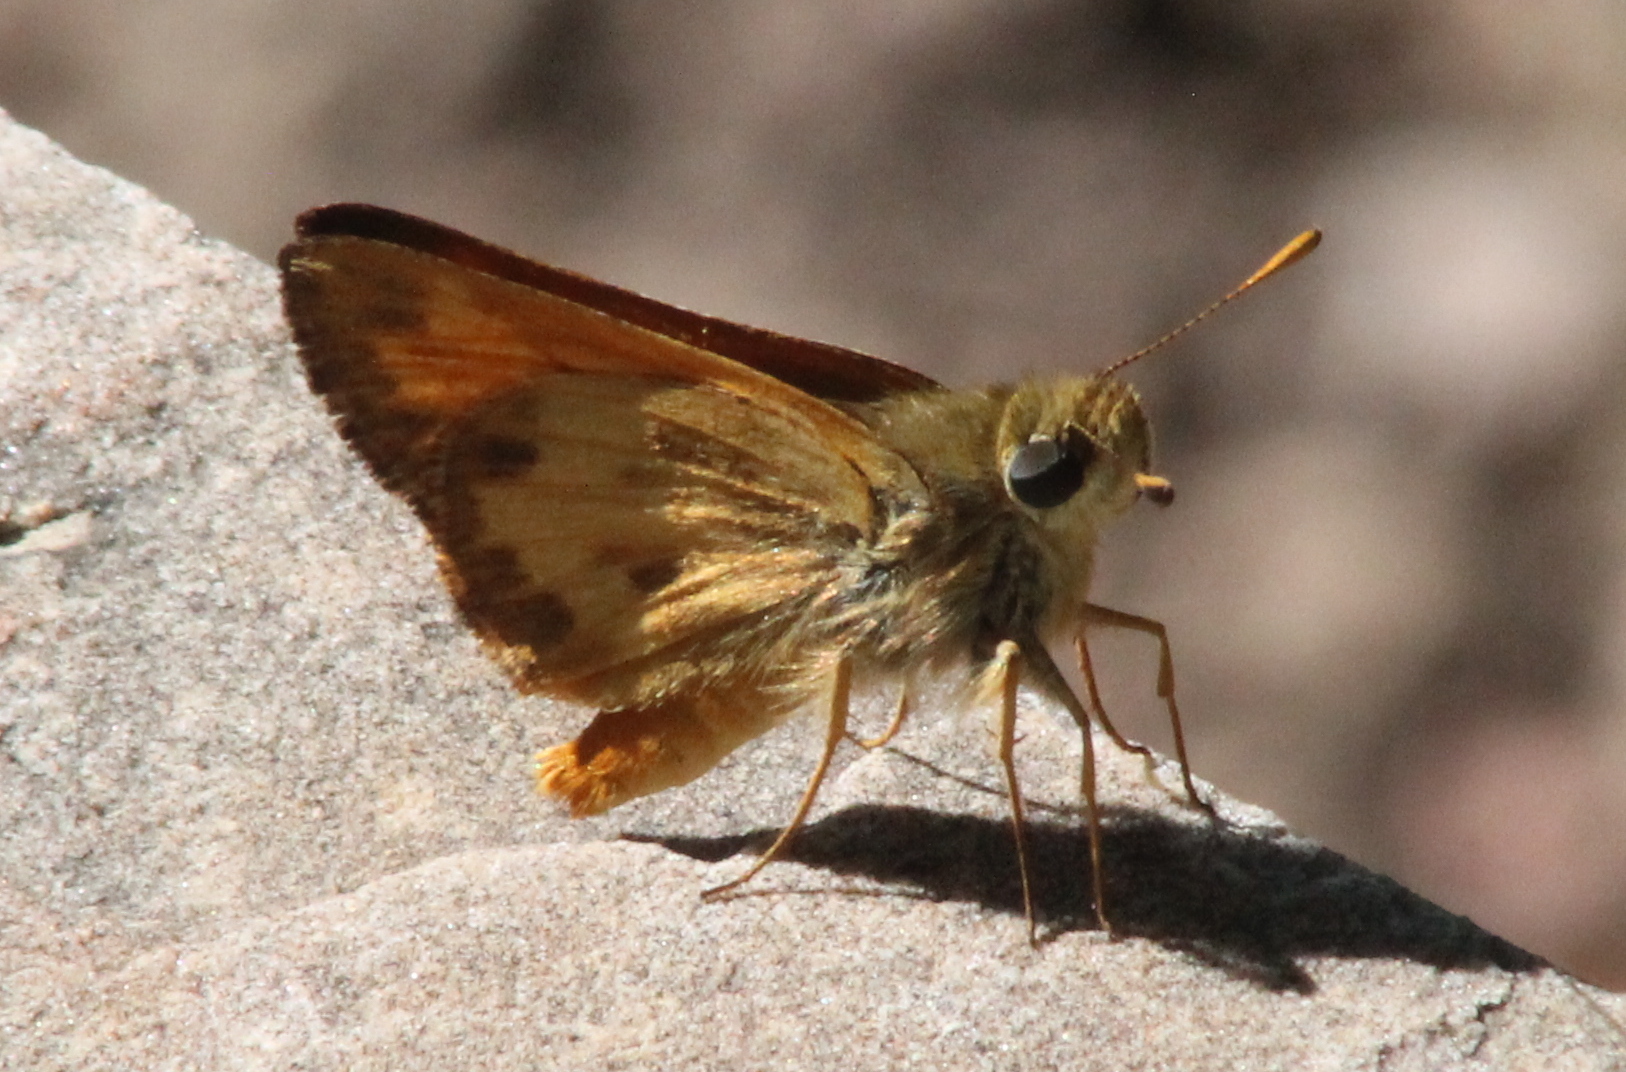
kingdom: Animalia
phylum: Arthropoda
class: Insecta
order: Lepidoptera
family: Hesperiidae
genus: Lon
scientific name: Lon taxiles
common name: Taxiles skipper
